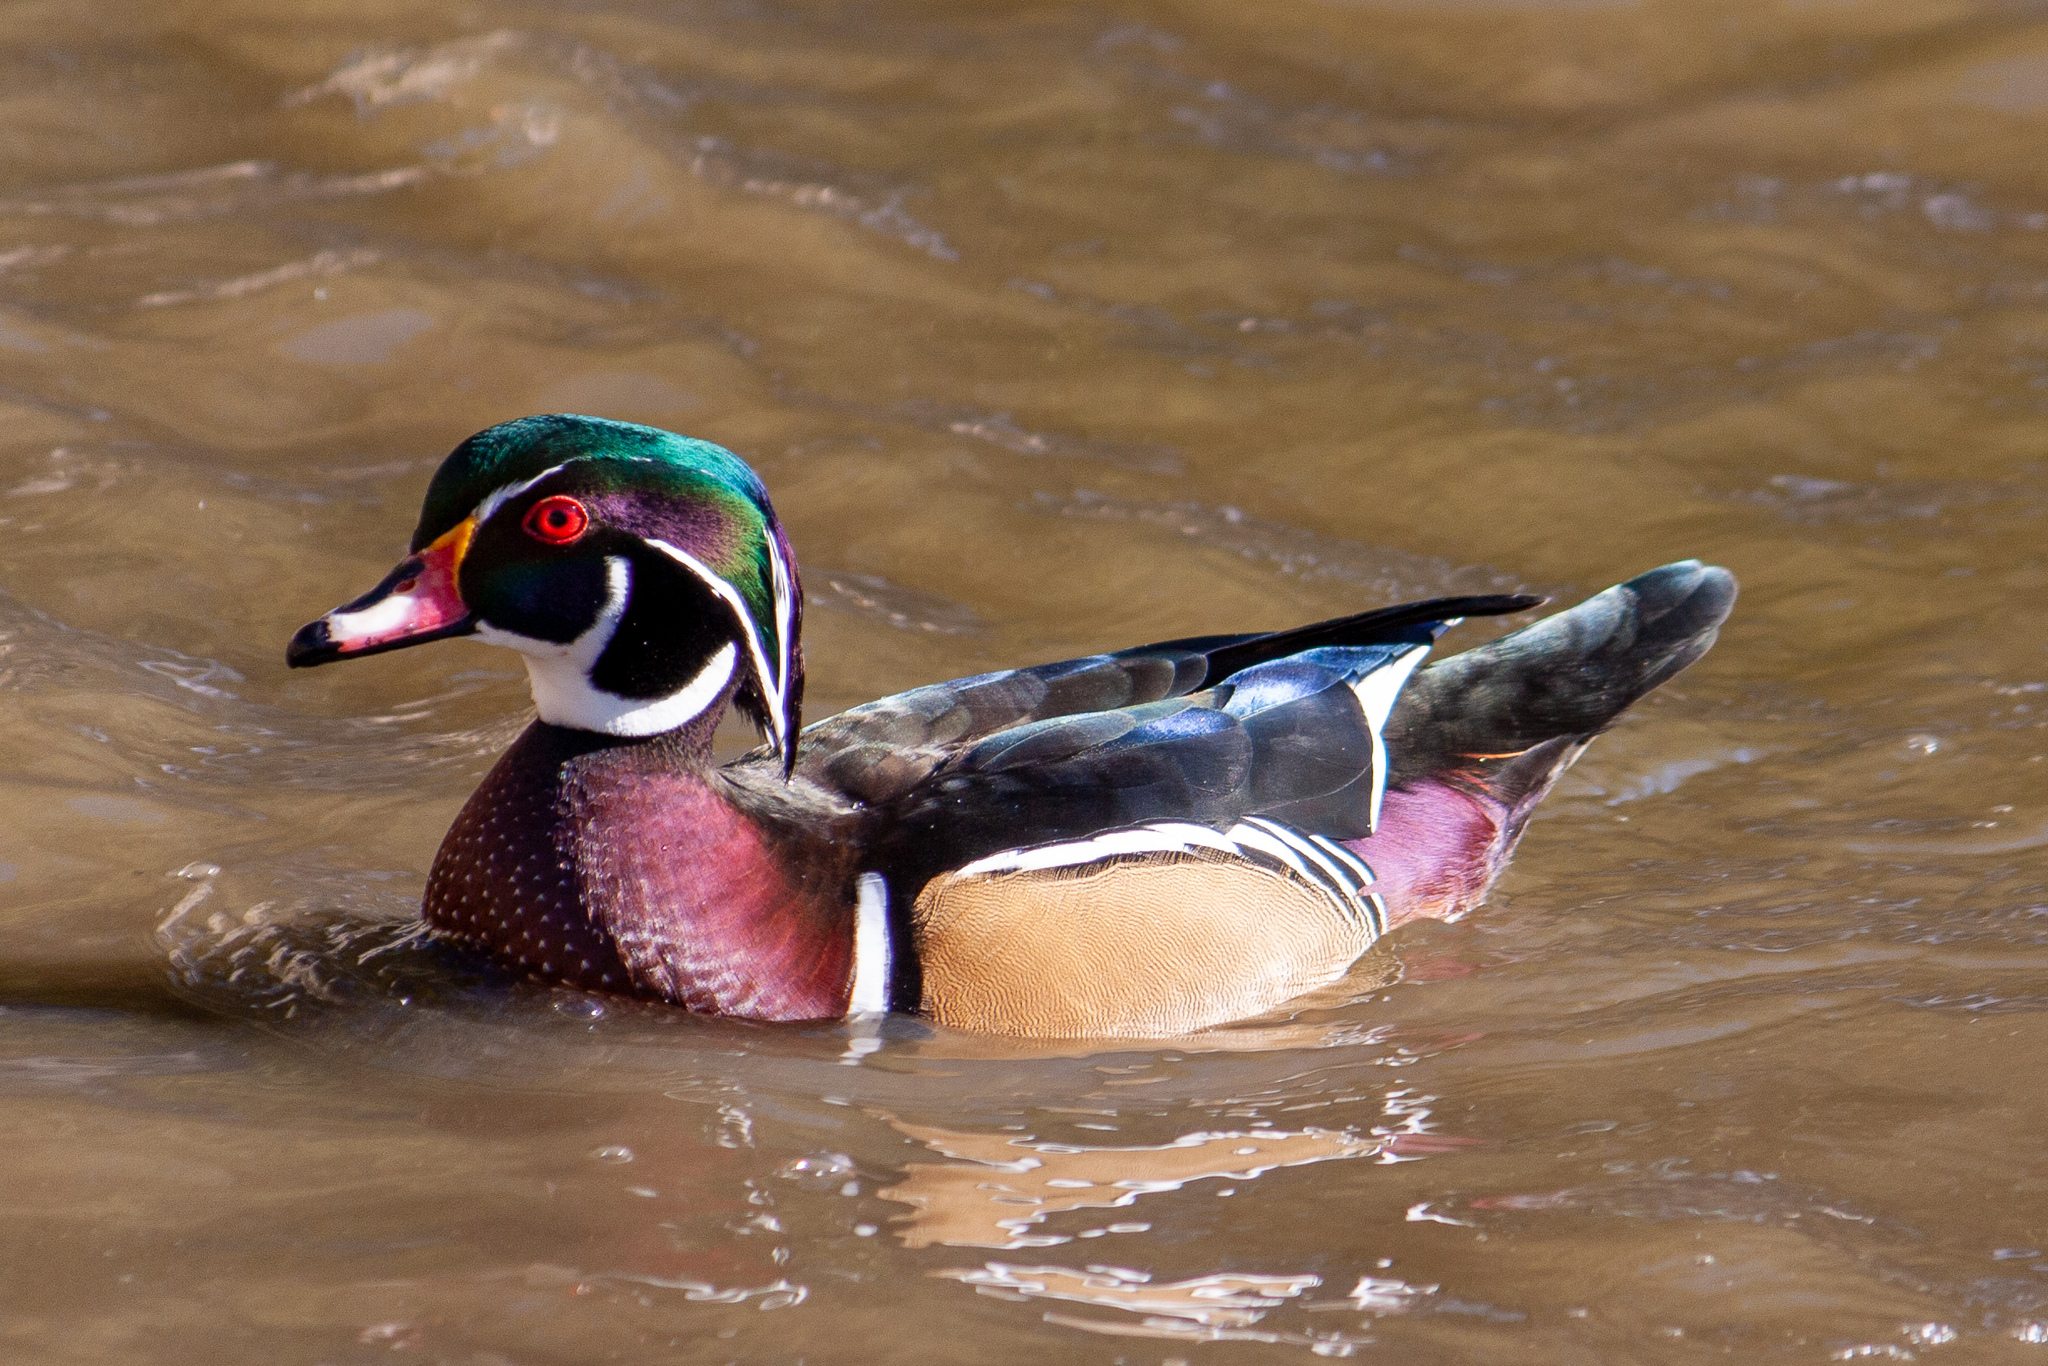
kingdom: Animalia
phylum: Chordata
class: Aves
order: Anseriformes
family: Anatidae
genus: Aix
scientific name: Aix sponsa
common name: Wood duck
